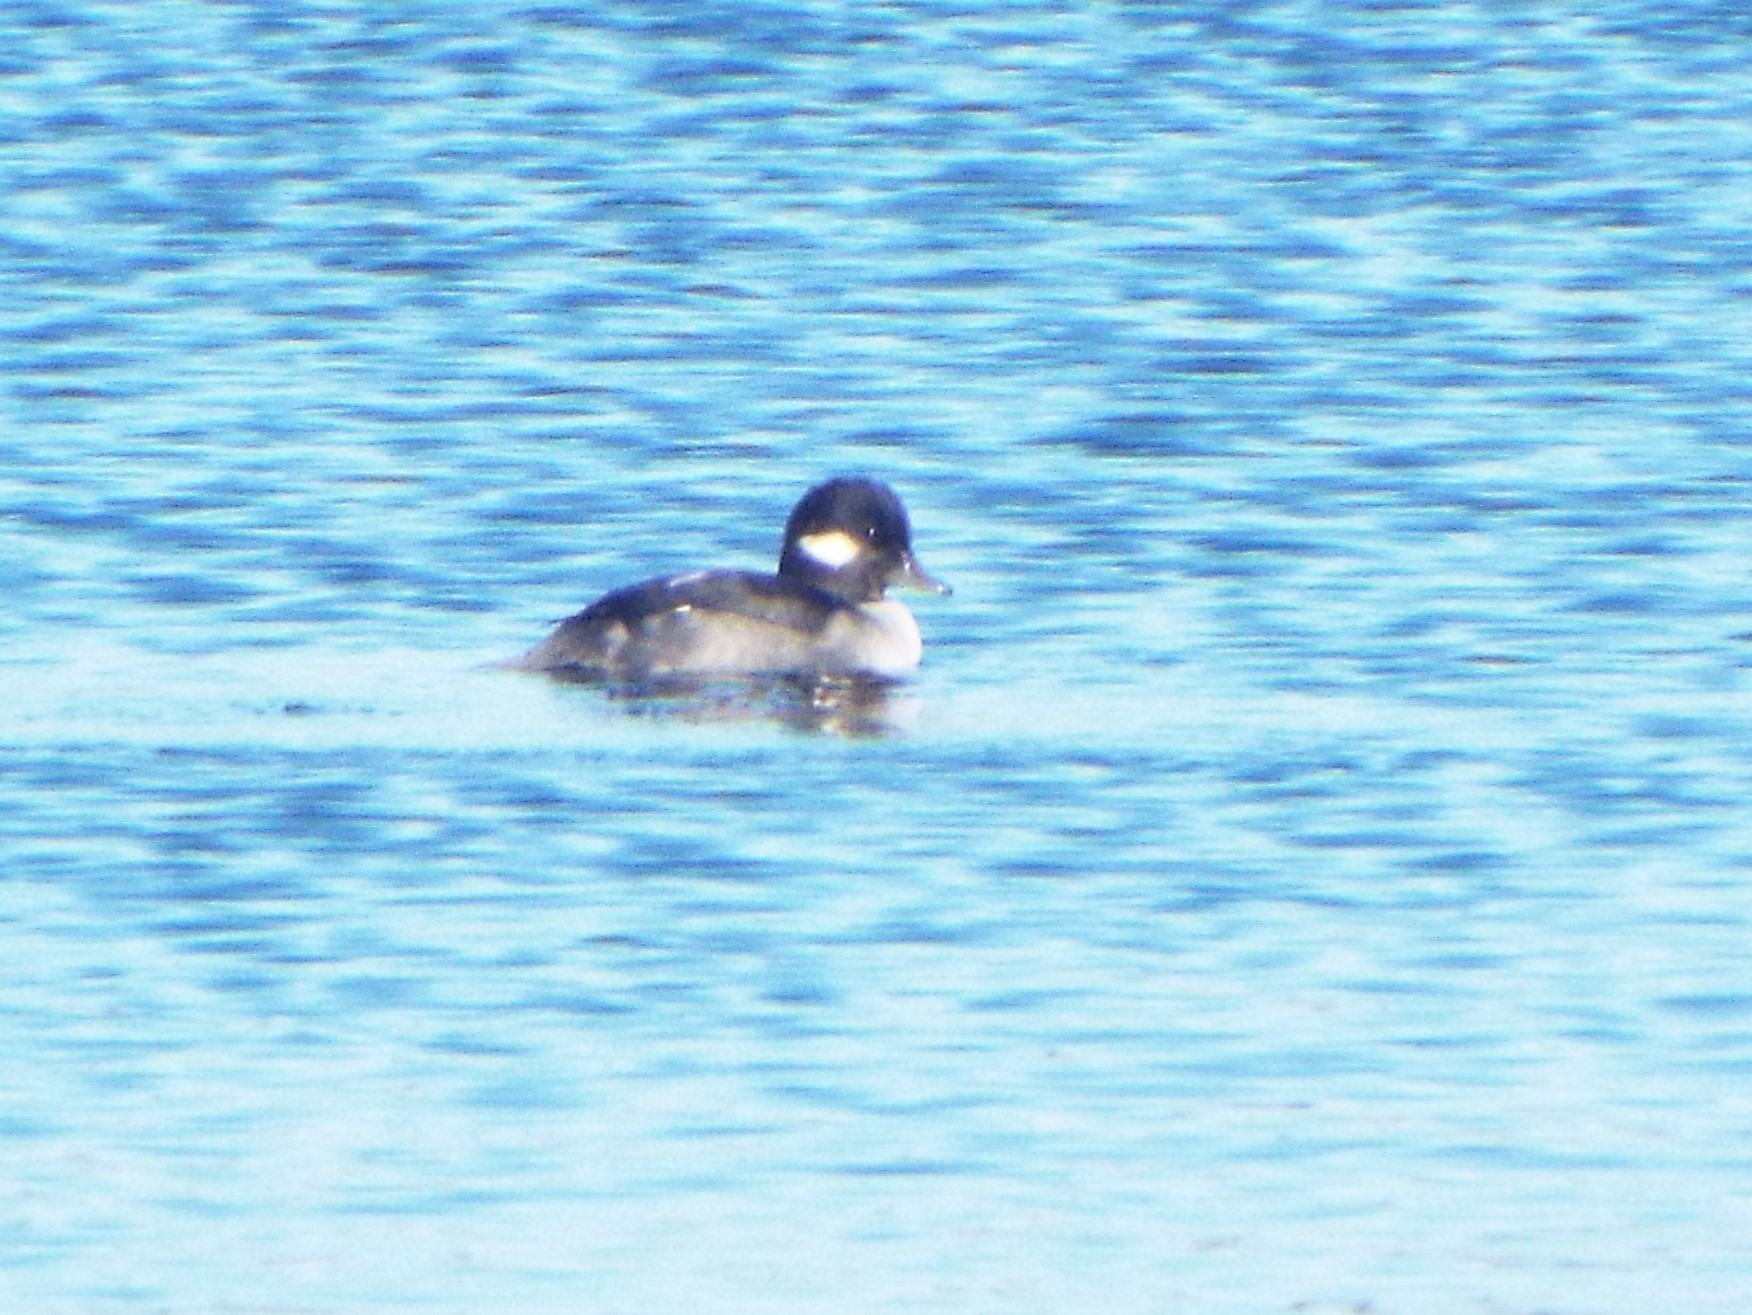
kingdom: Animalia
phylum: Chordata
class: Aves
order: Anseriformes
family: Anatidae
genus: Bucephala
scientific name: Bucephala albeola
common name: Bufflehead
